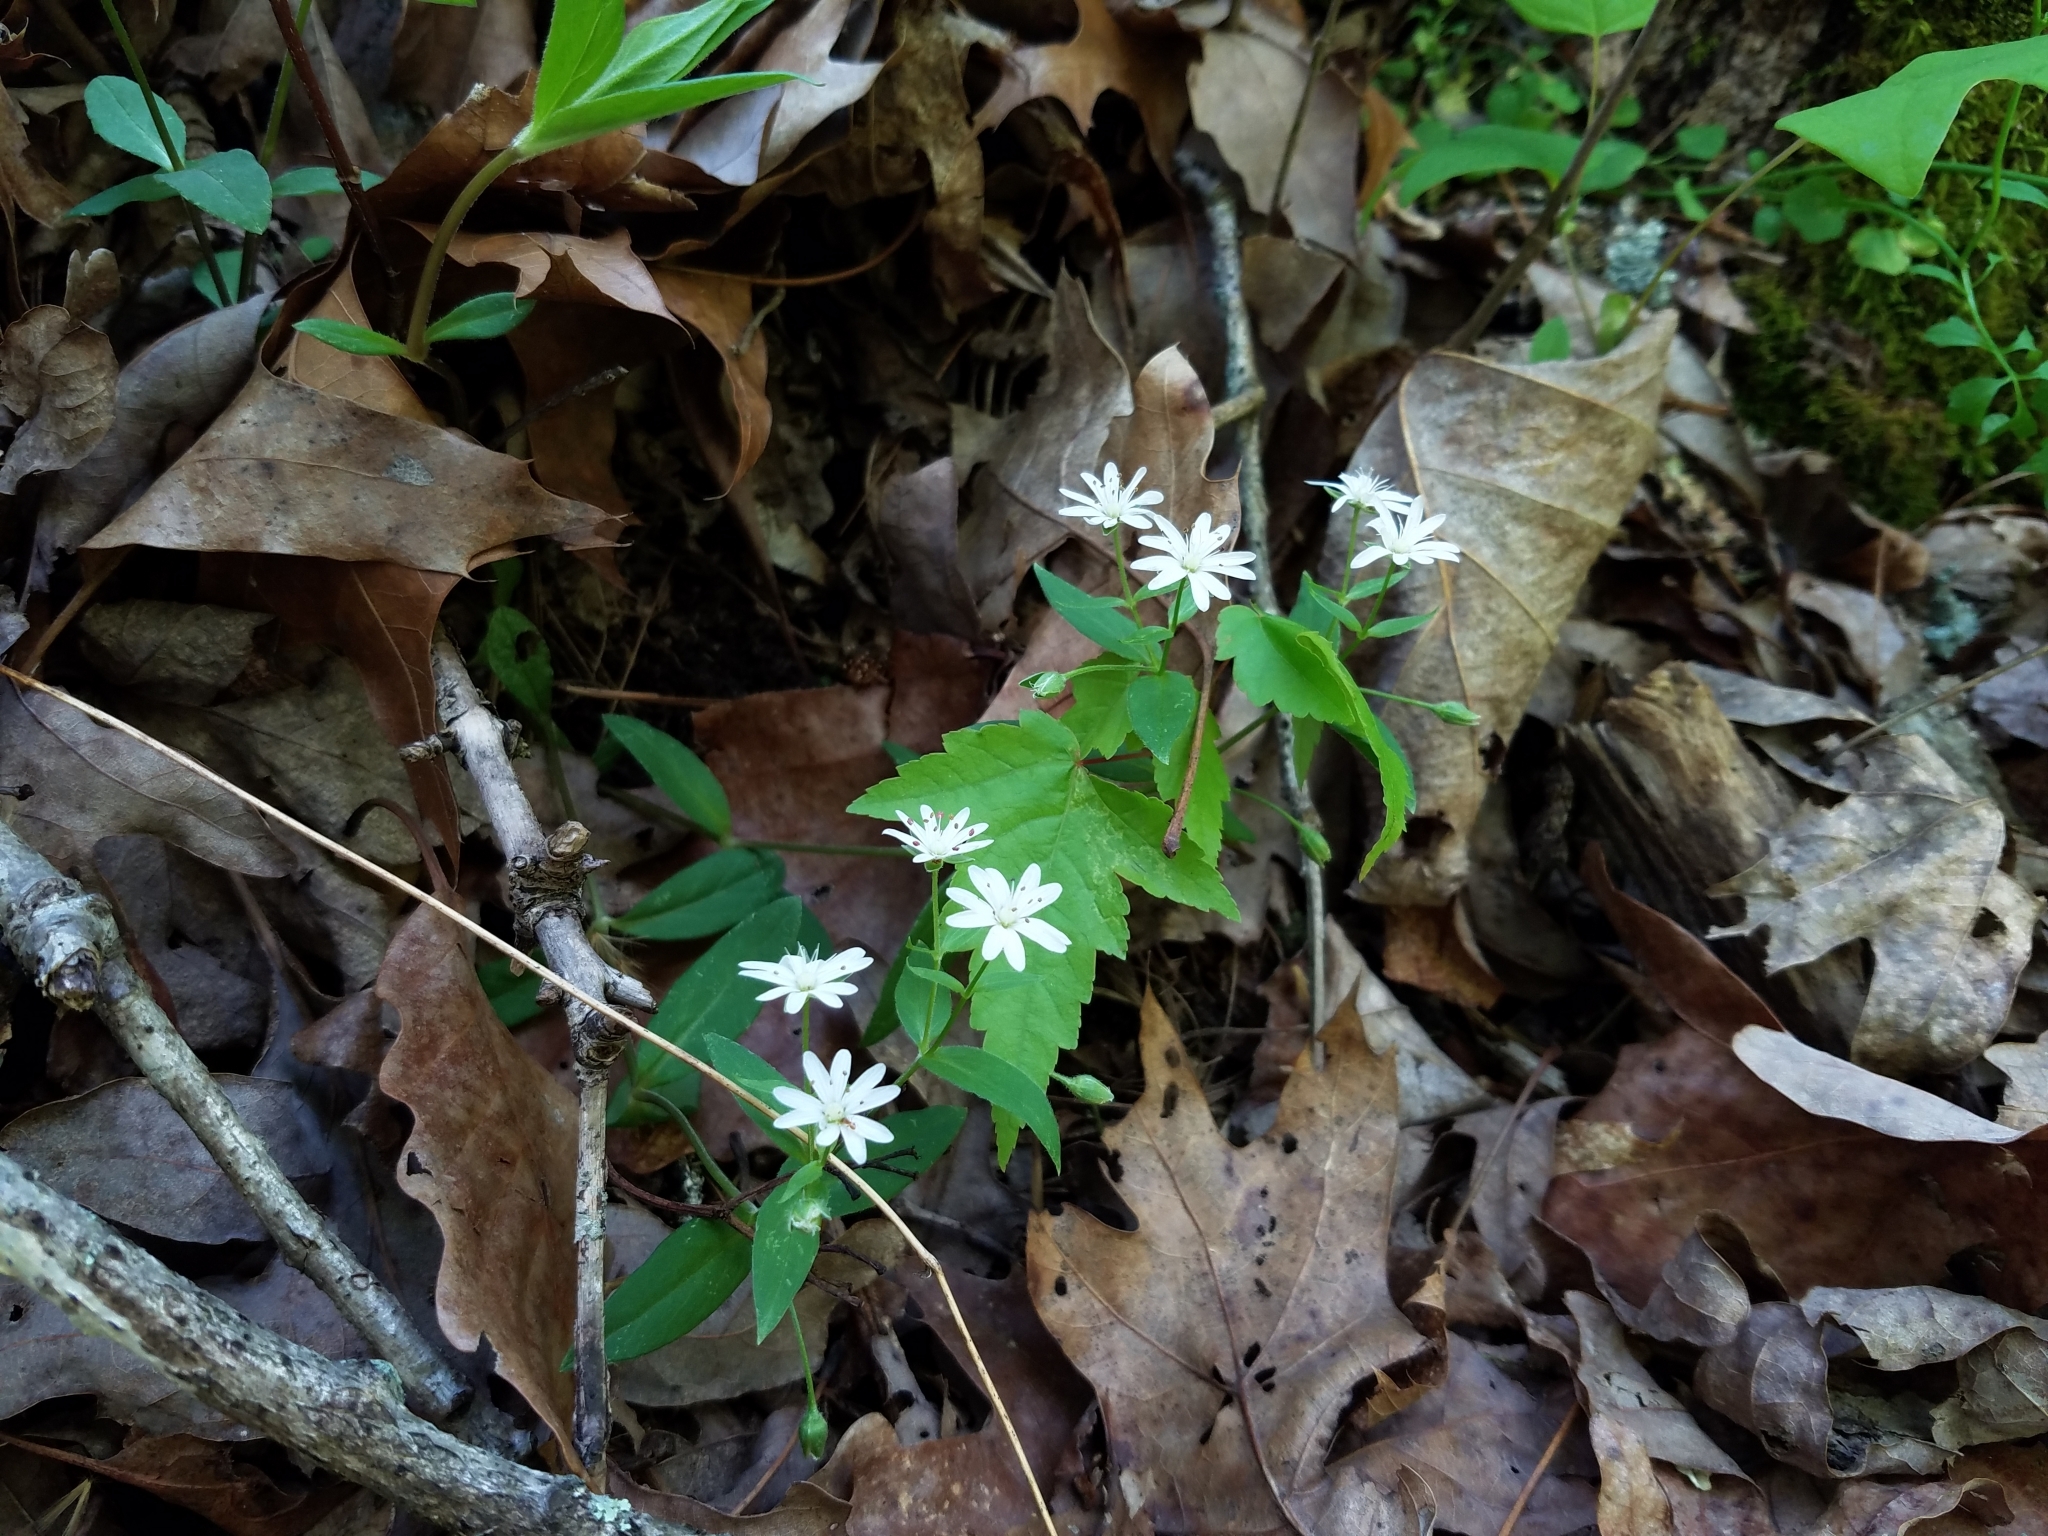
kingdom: Plantae
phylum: Tracheophyta
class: Magnoliopsida
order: Caryophyllales
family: Caryophyllaceae
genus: Stellaria
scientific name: Stellaria pubera
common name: Star chickweed
